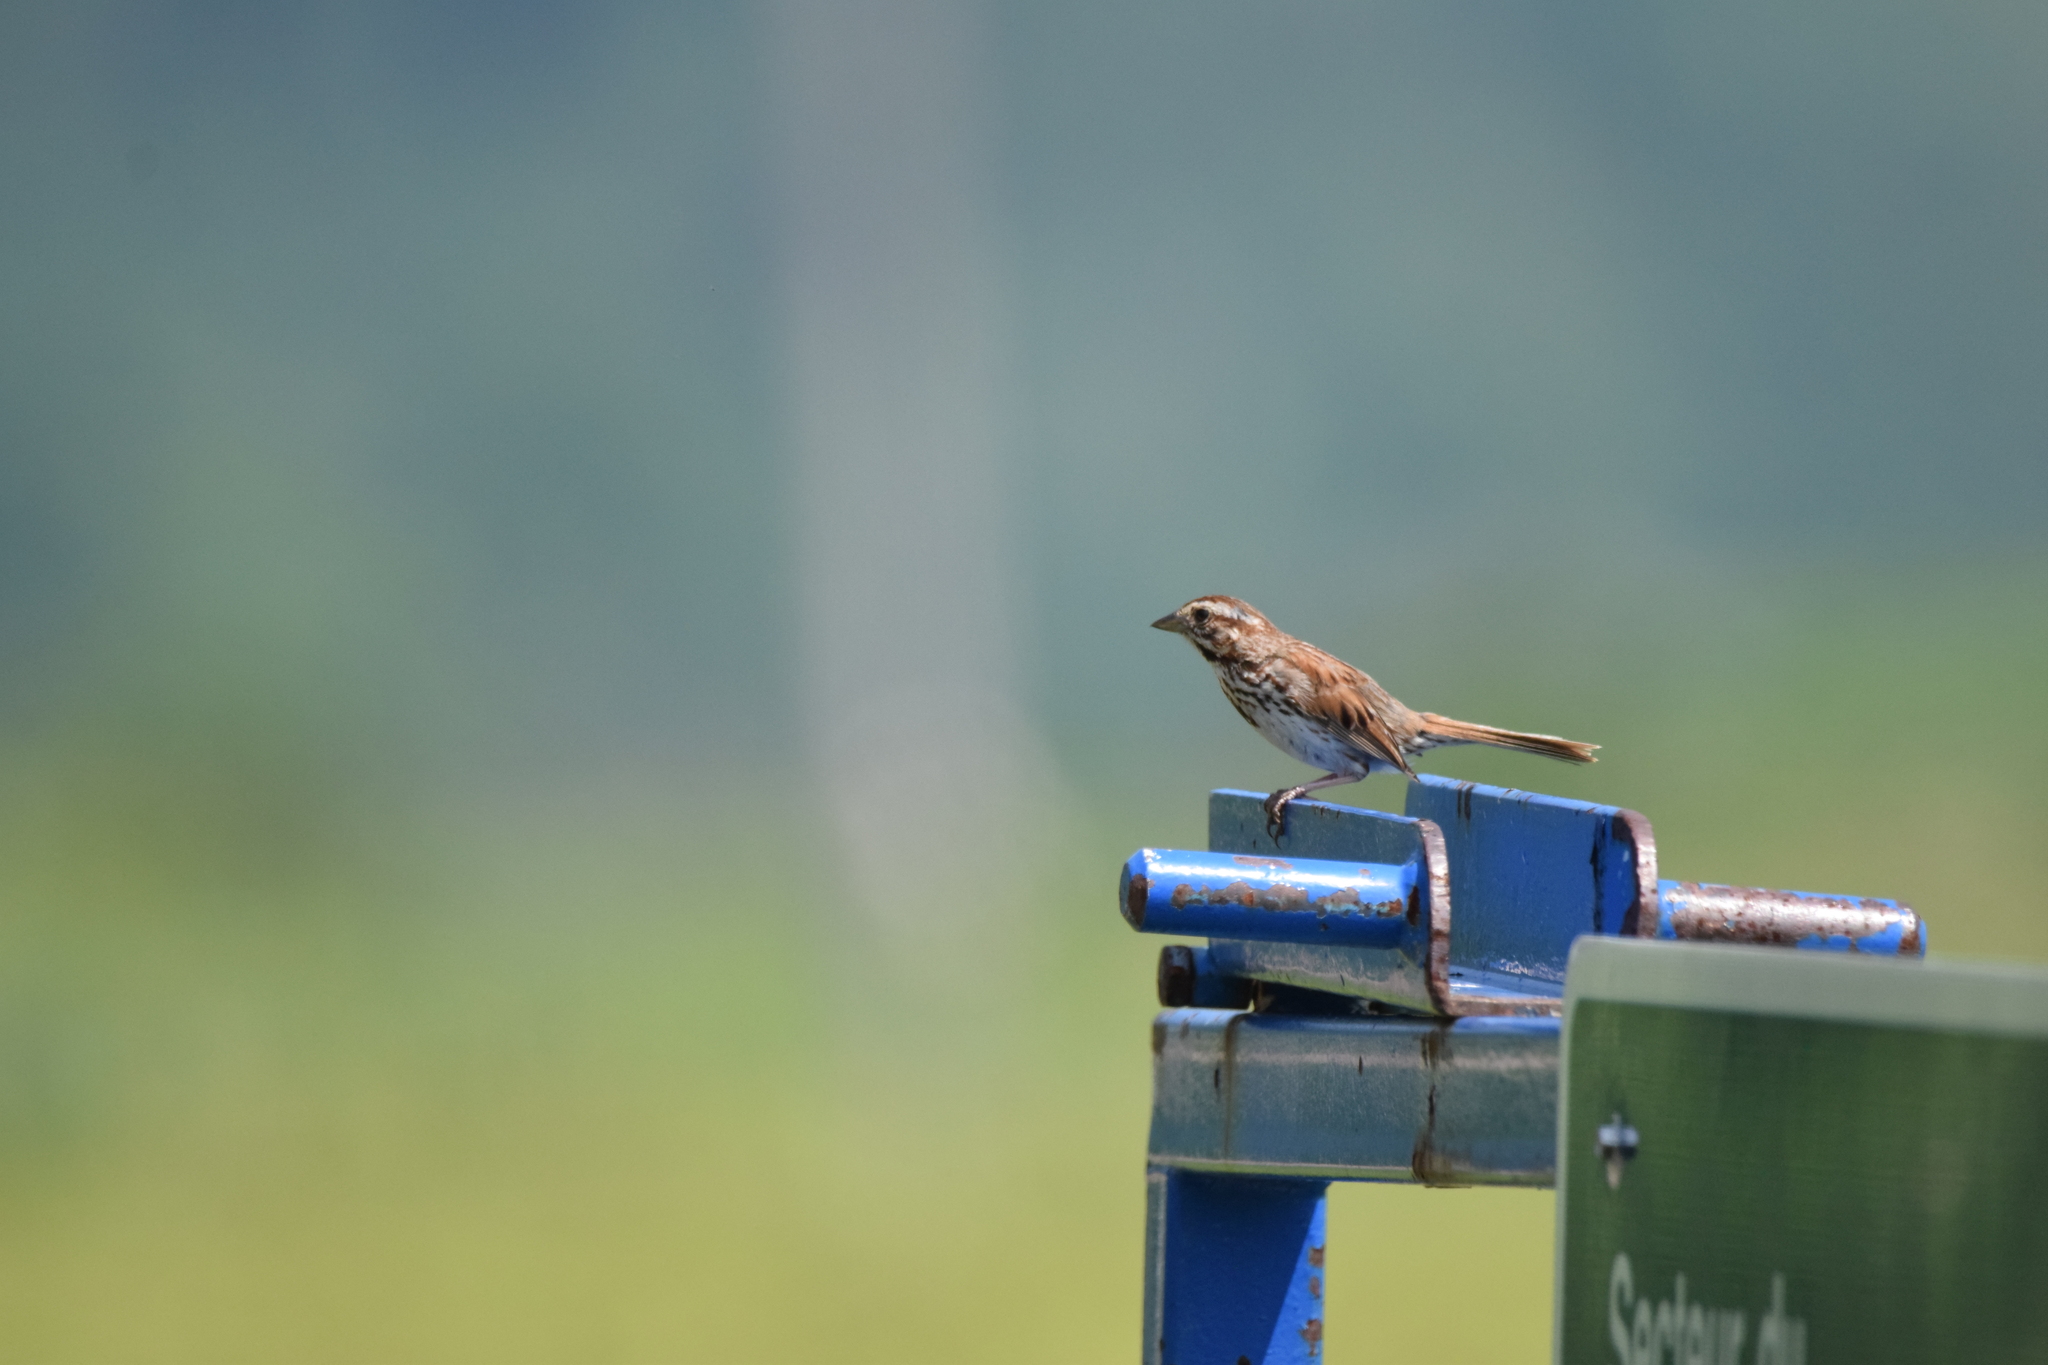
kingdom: Animalia
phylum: Chordata
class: Aves
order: Passeriformes
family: Passerellidae
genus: Melospiza
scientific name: Melospiza melodia
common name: Song sparrow
